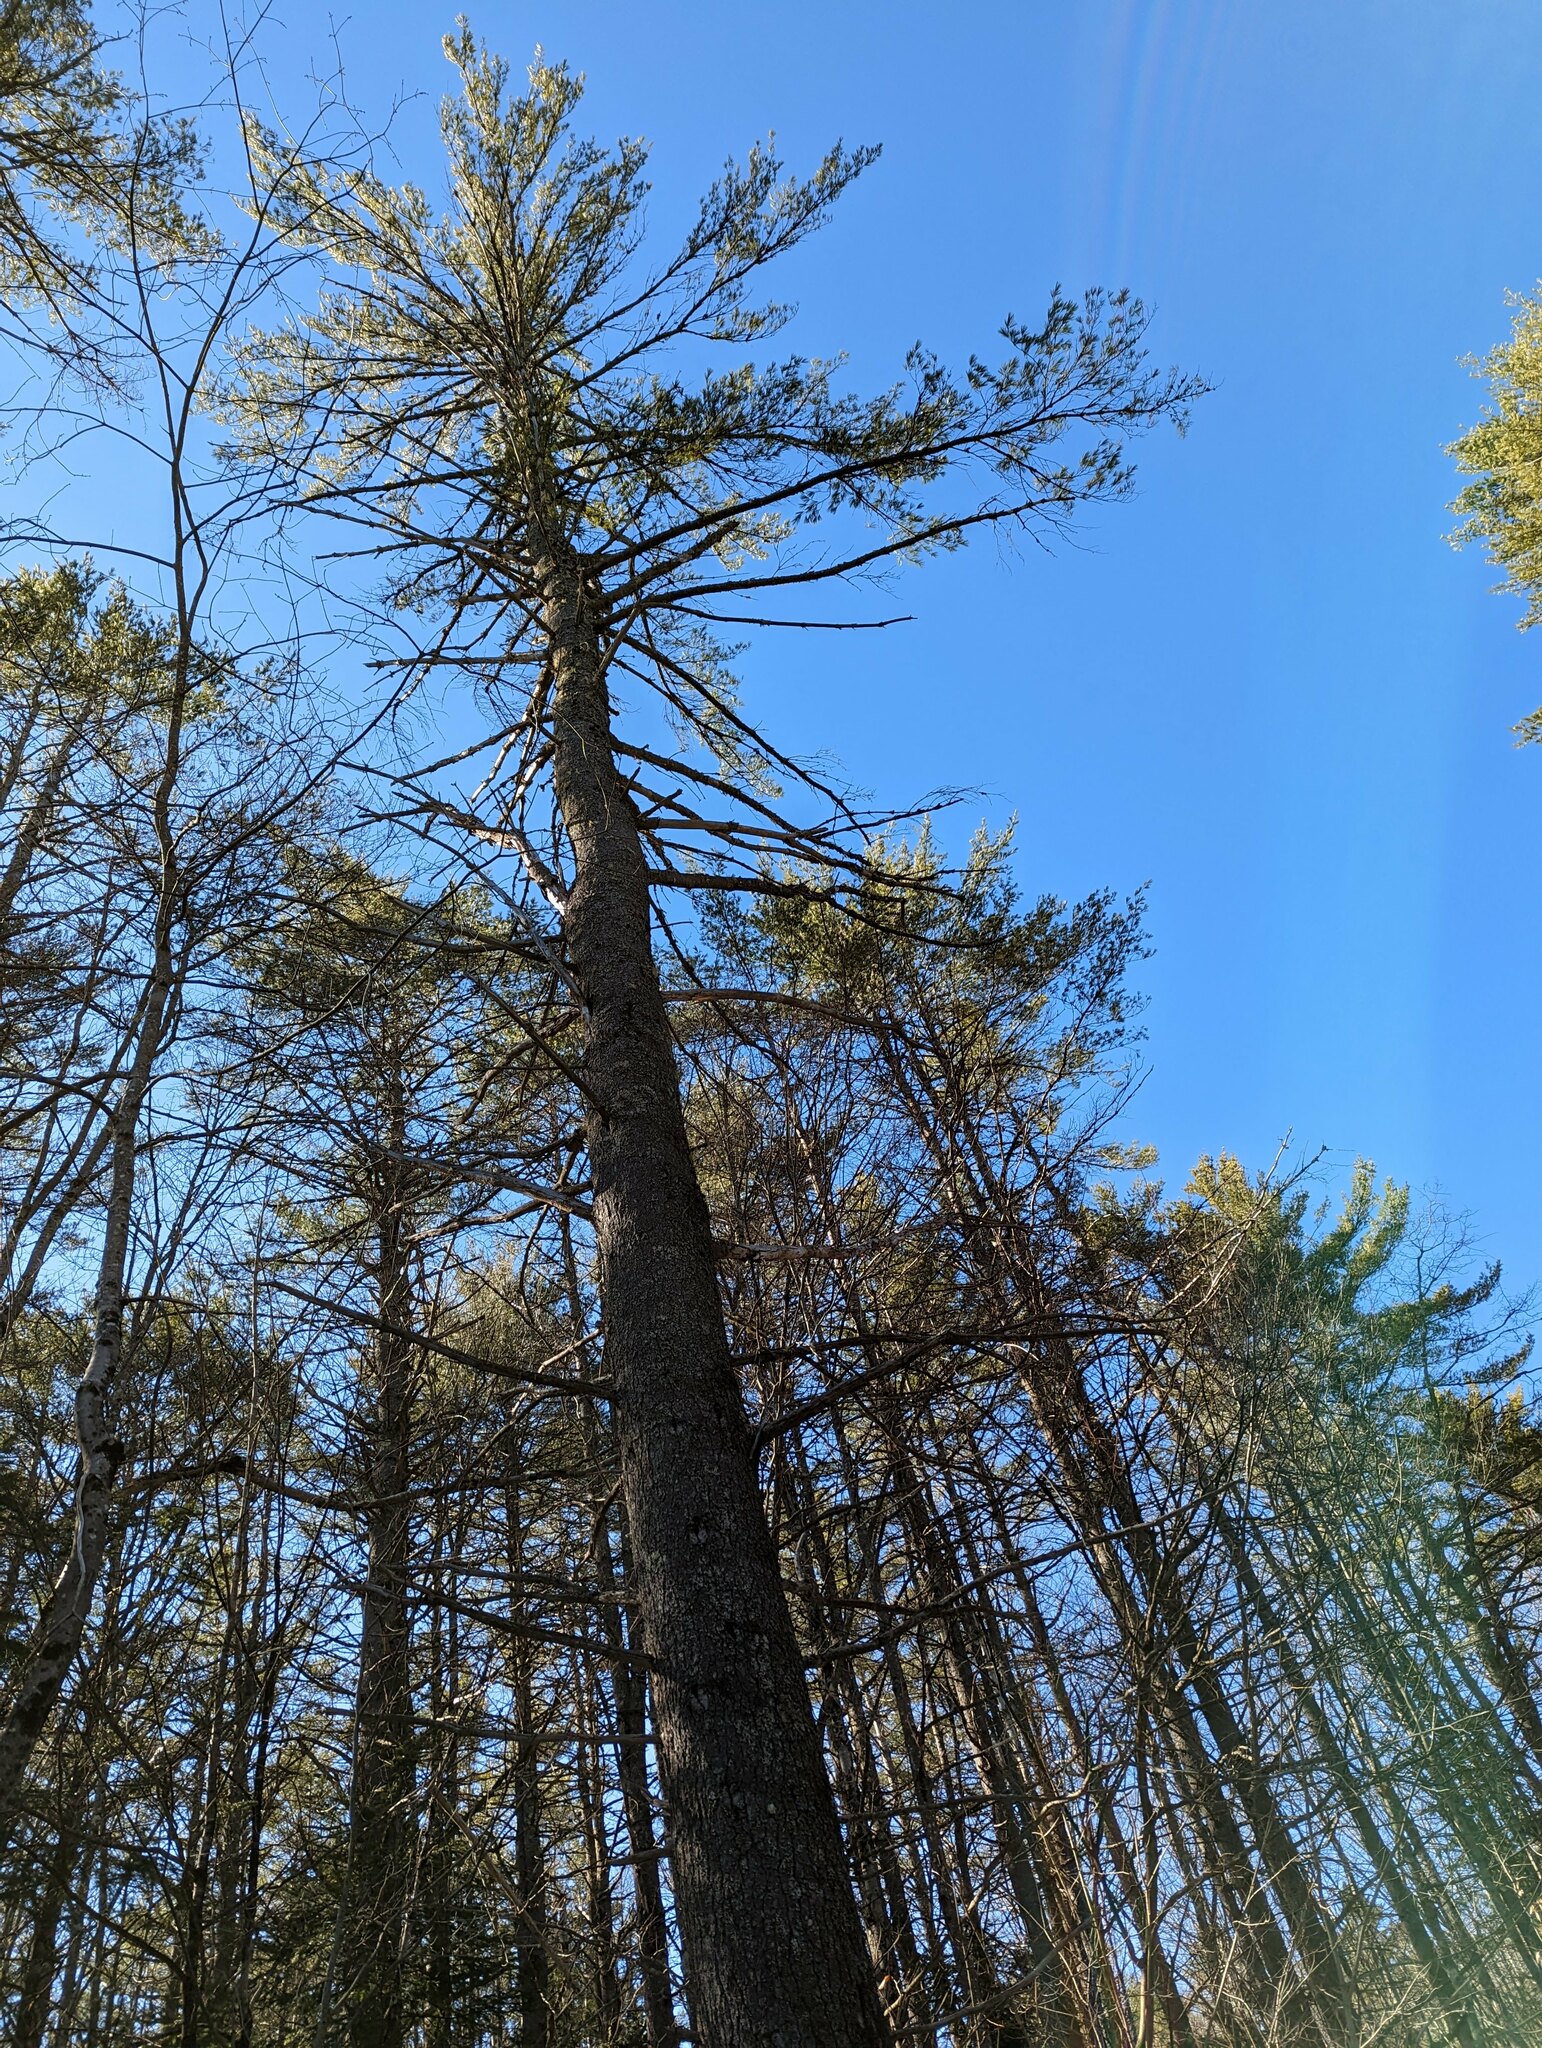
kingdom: Plantae
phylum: Tracheophyta
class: Pinopsida
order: Pinales
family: Pinaceae
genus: Pinus
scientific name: Pinus strobus
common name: Weymouth pine
